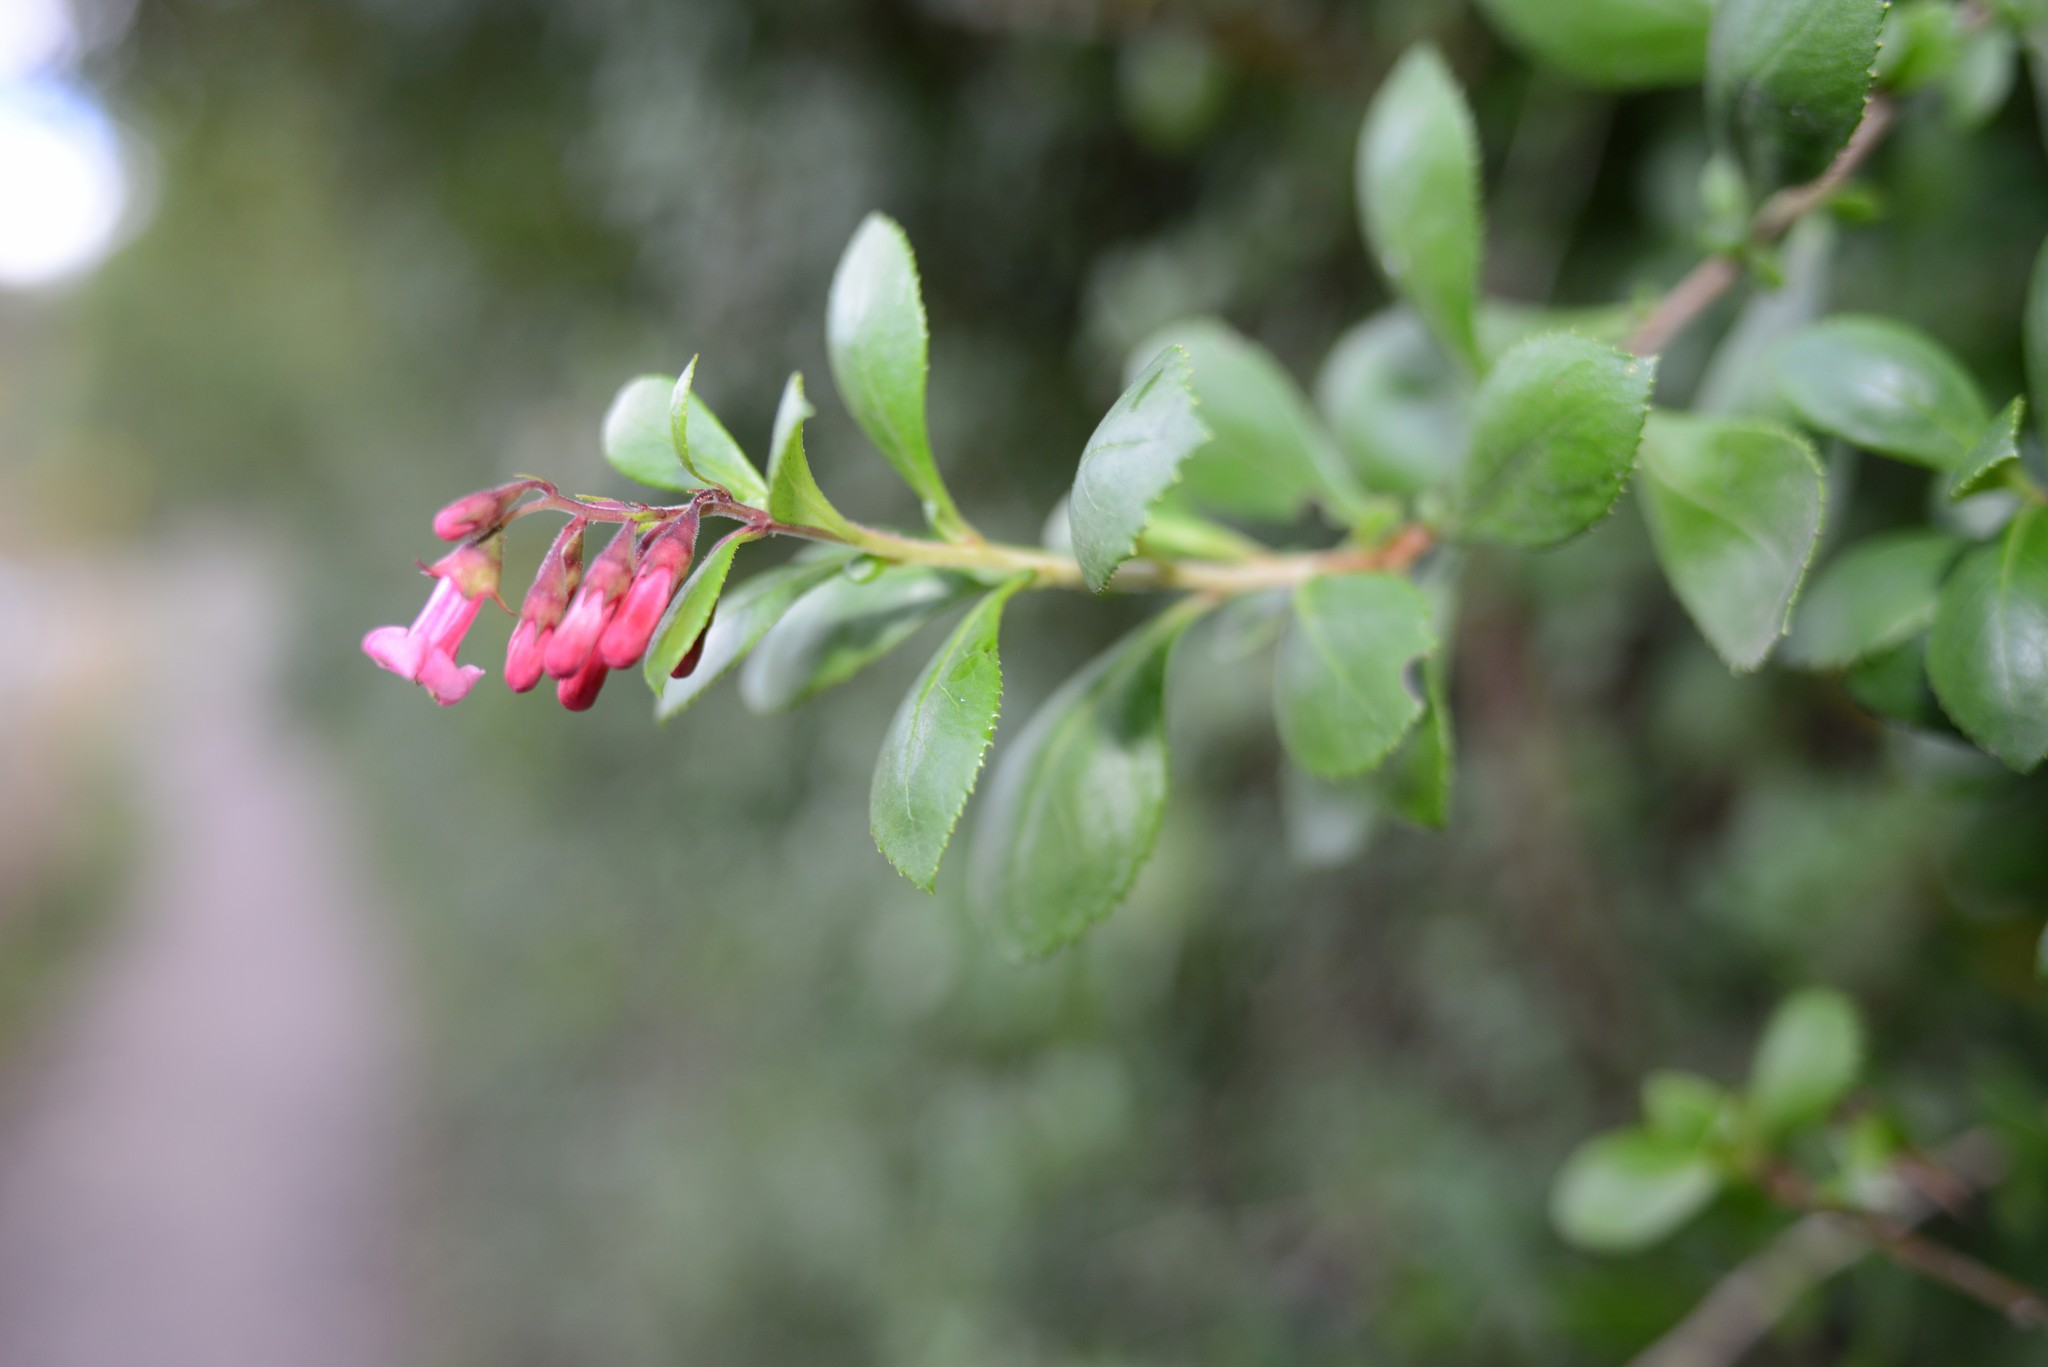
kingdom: Plantae
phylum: Tracheophyta
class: Magnoliopsida
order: Escalloniales
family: Escalloniaceae
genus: Escallonia
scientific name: Escallonia rubra
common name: Redclaws
